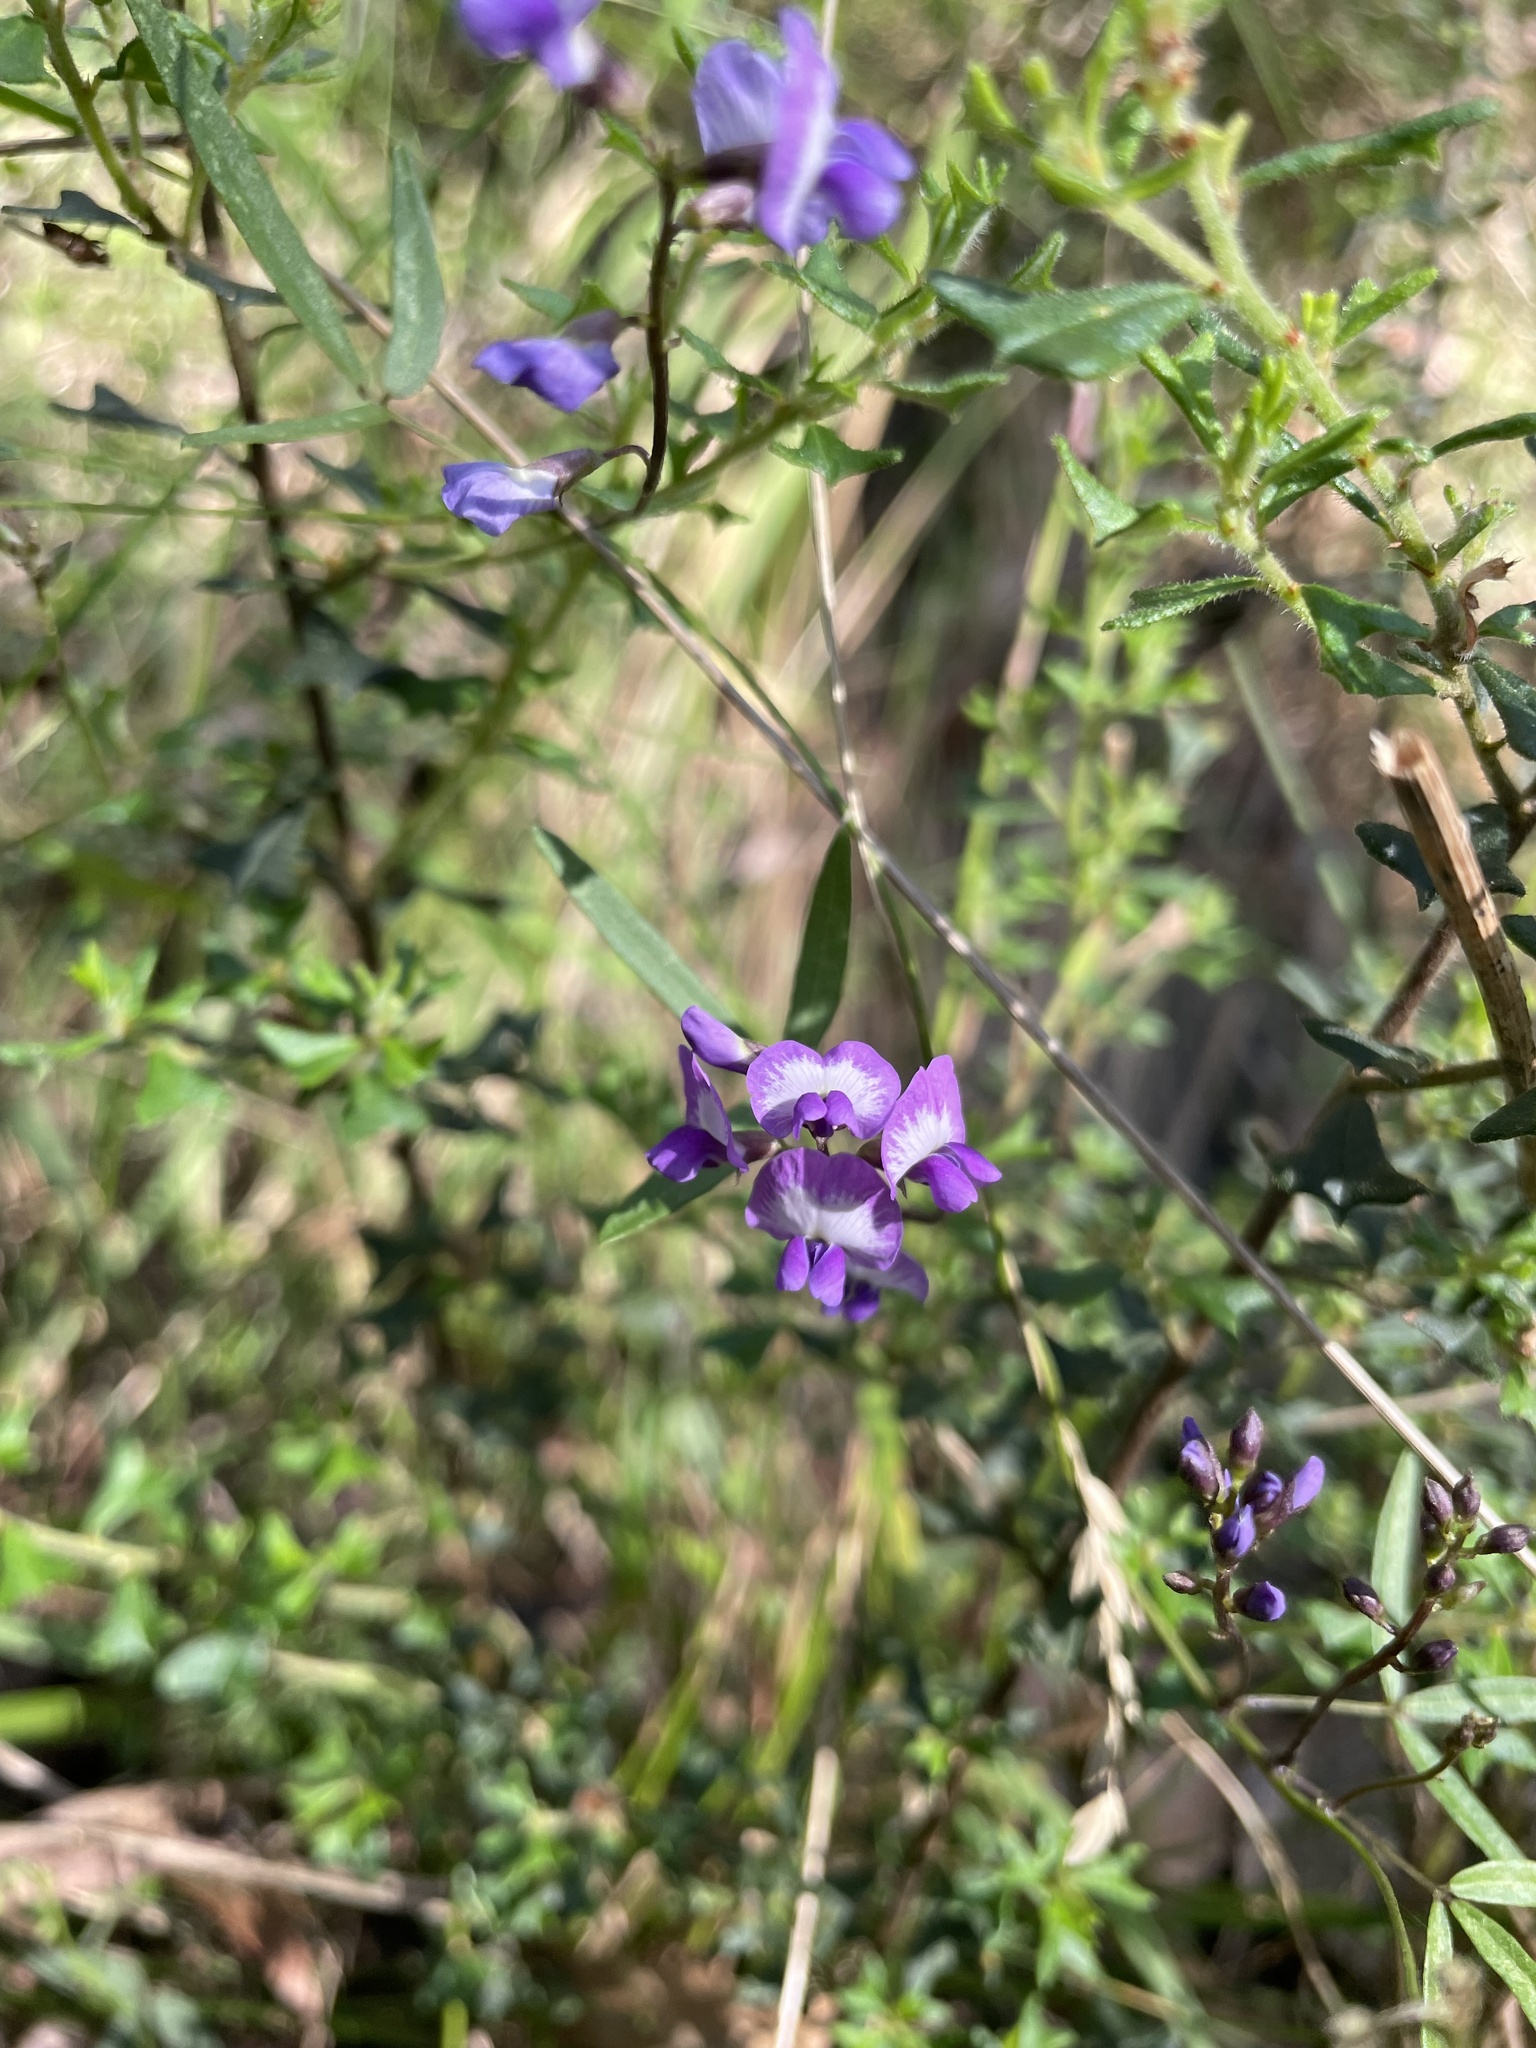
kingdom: Plantae
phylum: Tracheophyta
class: Magnoliopsida
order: Fabales
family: Fabaceae
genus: Glycine
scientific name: Glycine clandestina
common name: Twining glycine
